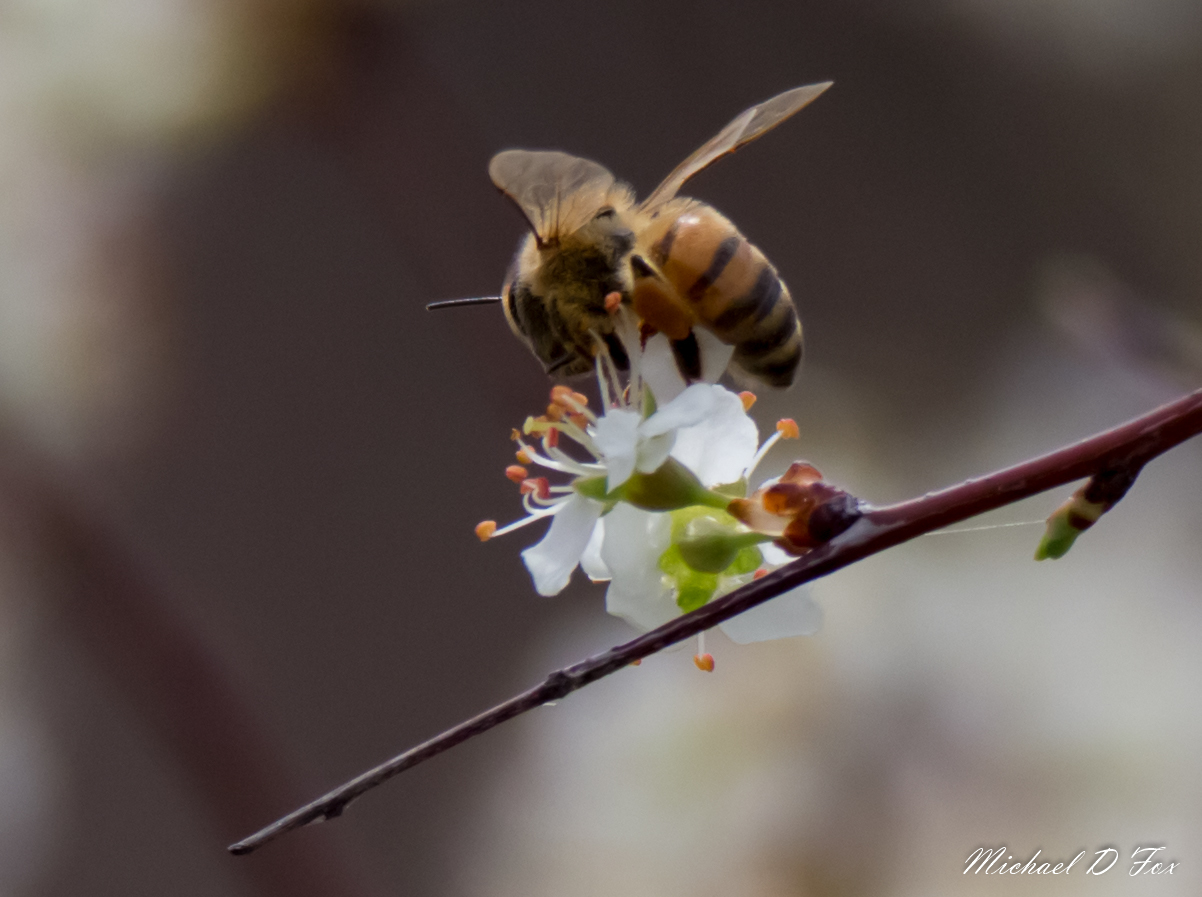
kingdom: Animalia
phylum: Arthropoda
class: Insecta
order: Hymenoptera
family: Apidae
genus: Apis
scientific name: Apis mellifera
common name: Honey bee
